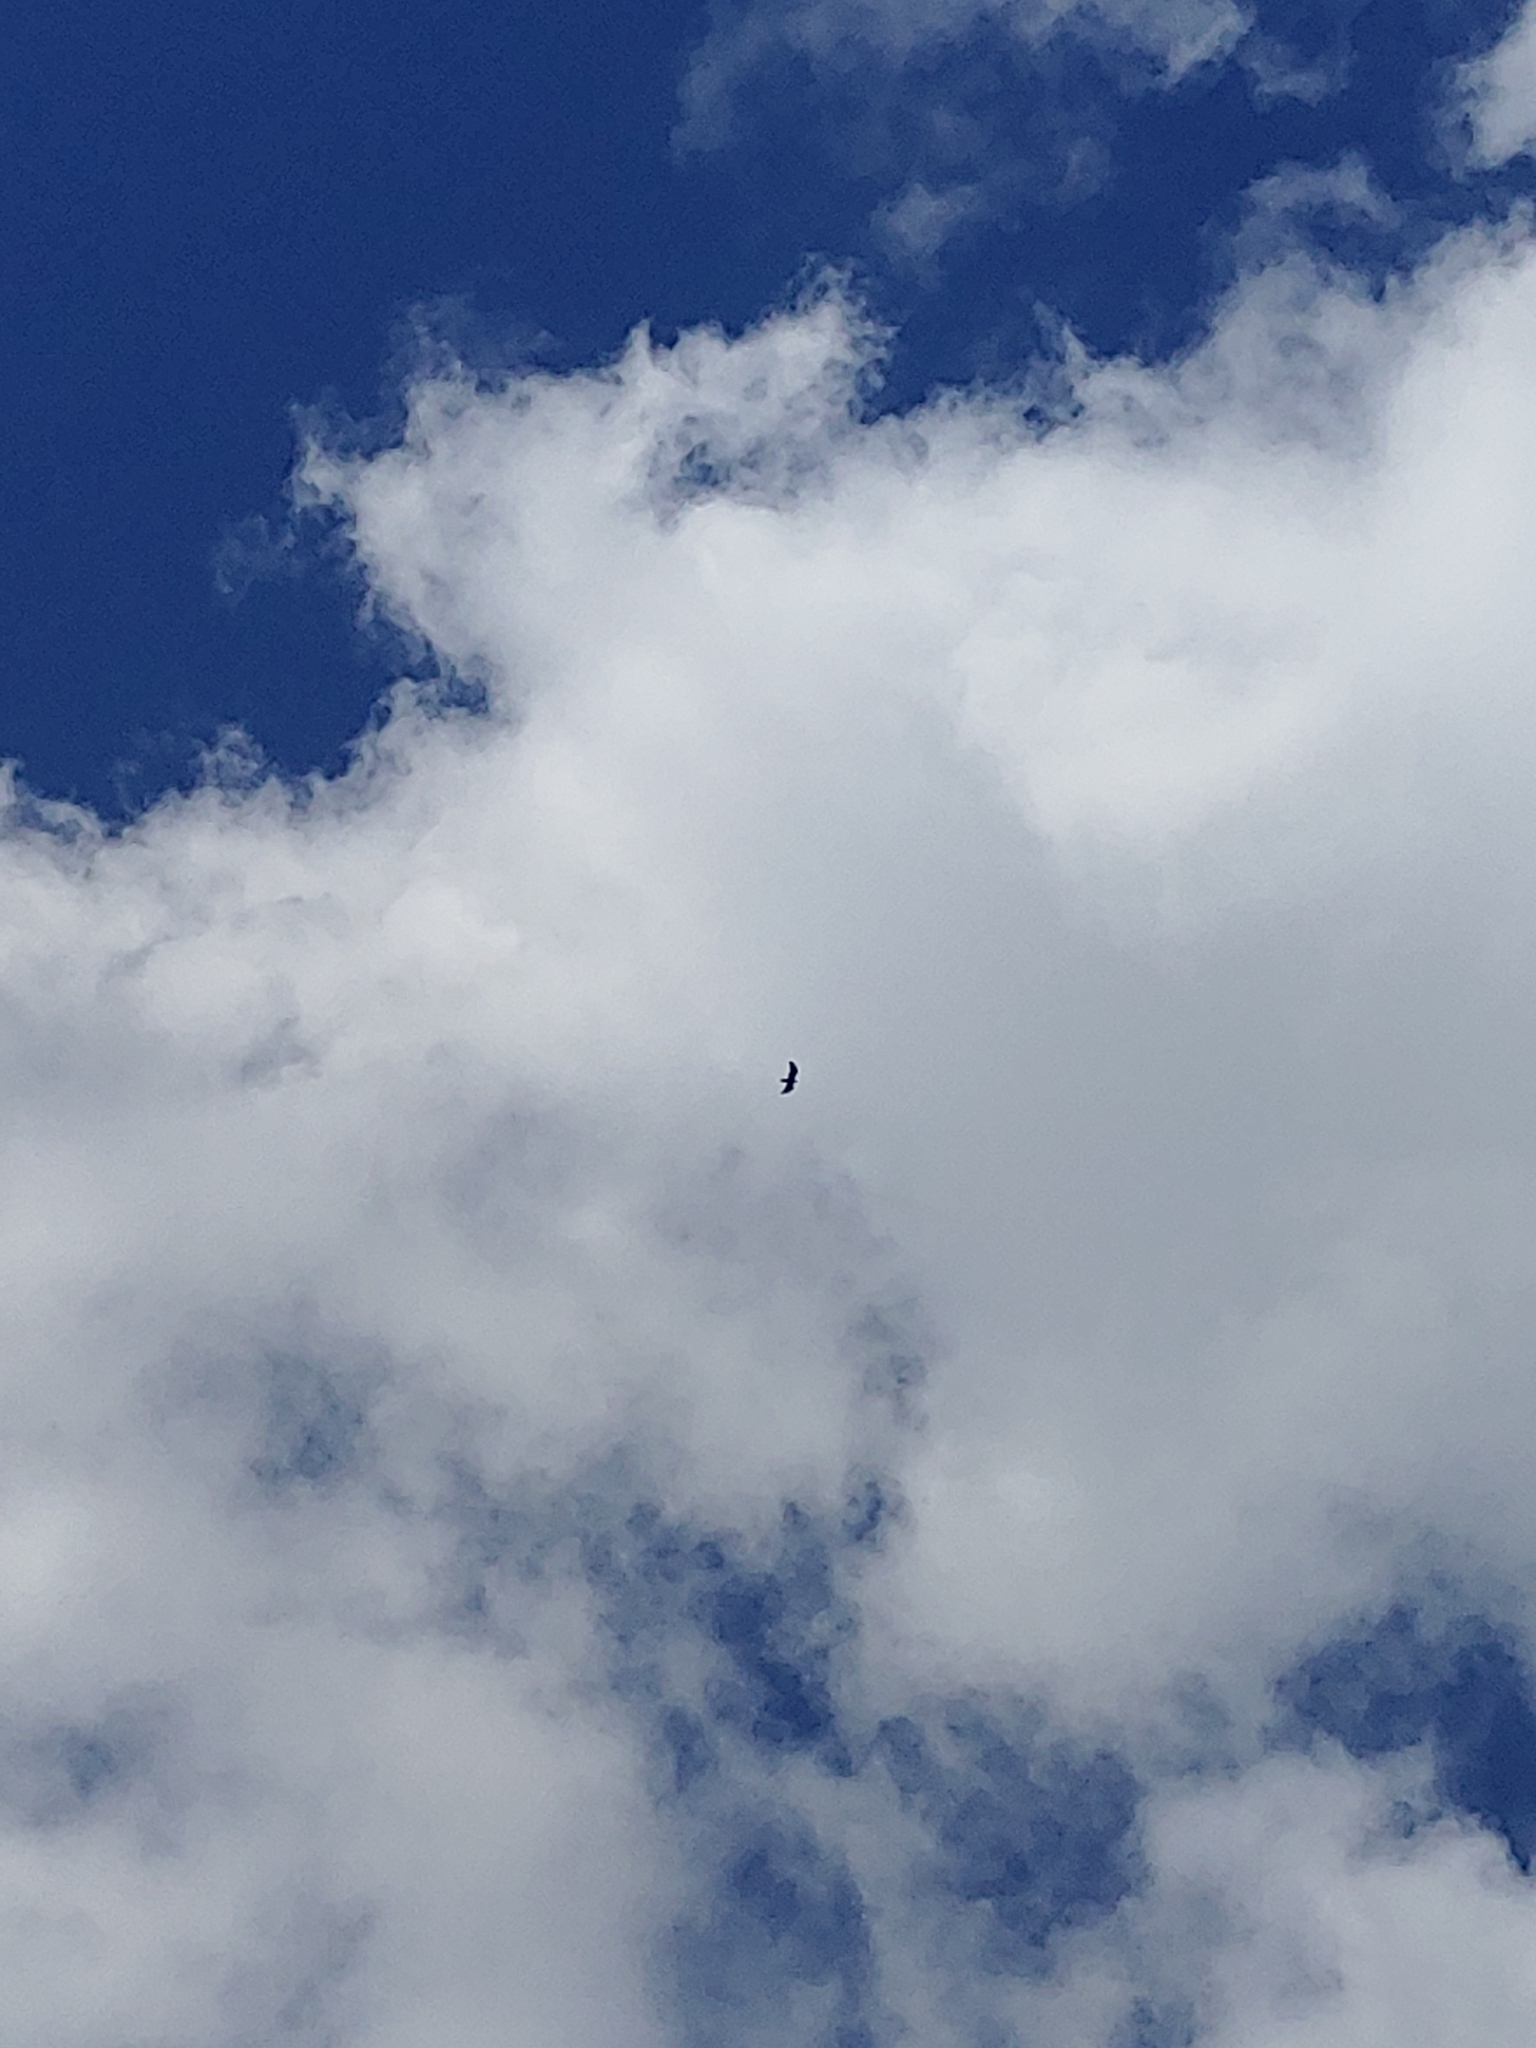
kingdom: Animalia
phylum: Chordata
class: Aves
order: Accipitriformes
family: Cathartidae
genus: Cathartes
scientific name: Cathartes aura
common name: Turkey vulture
